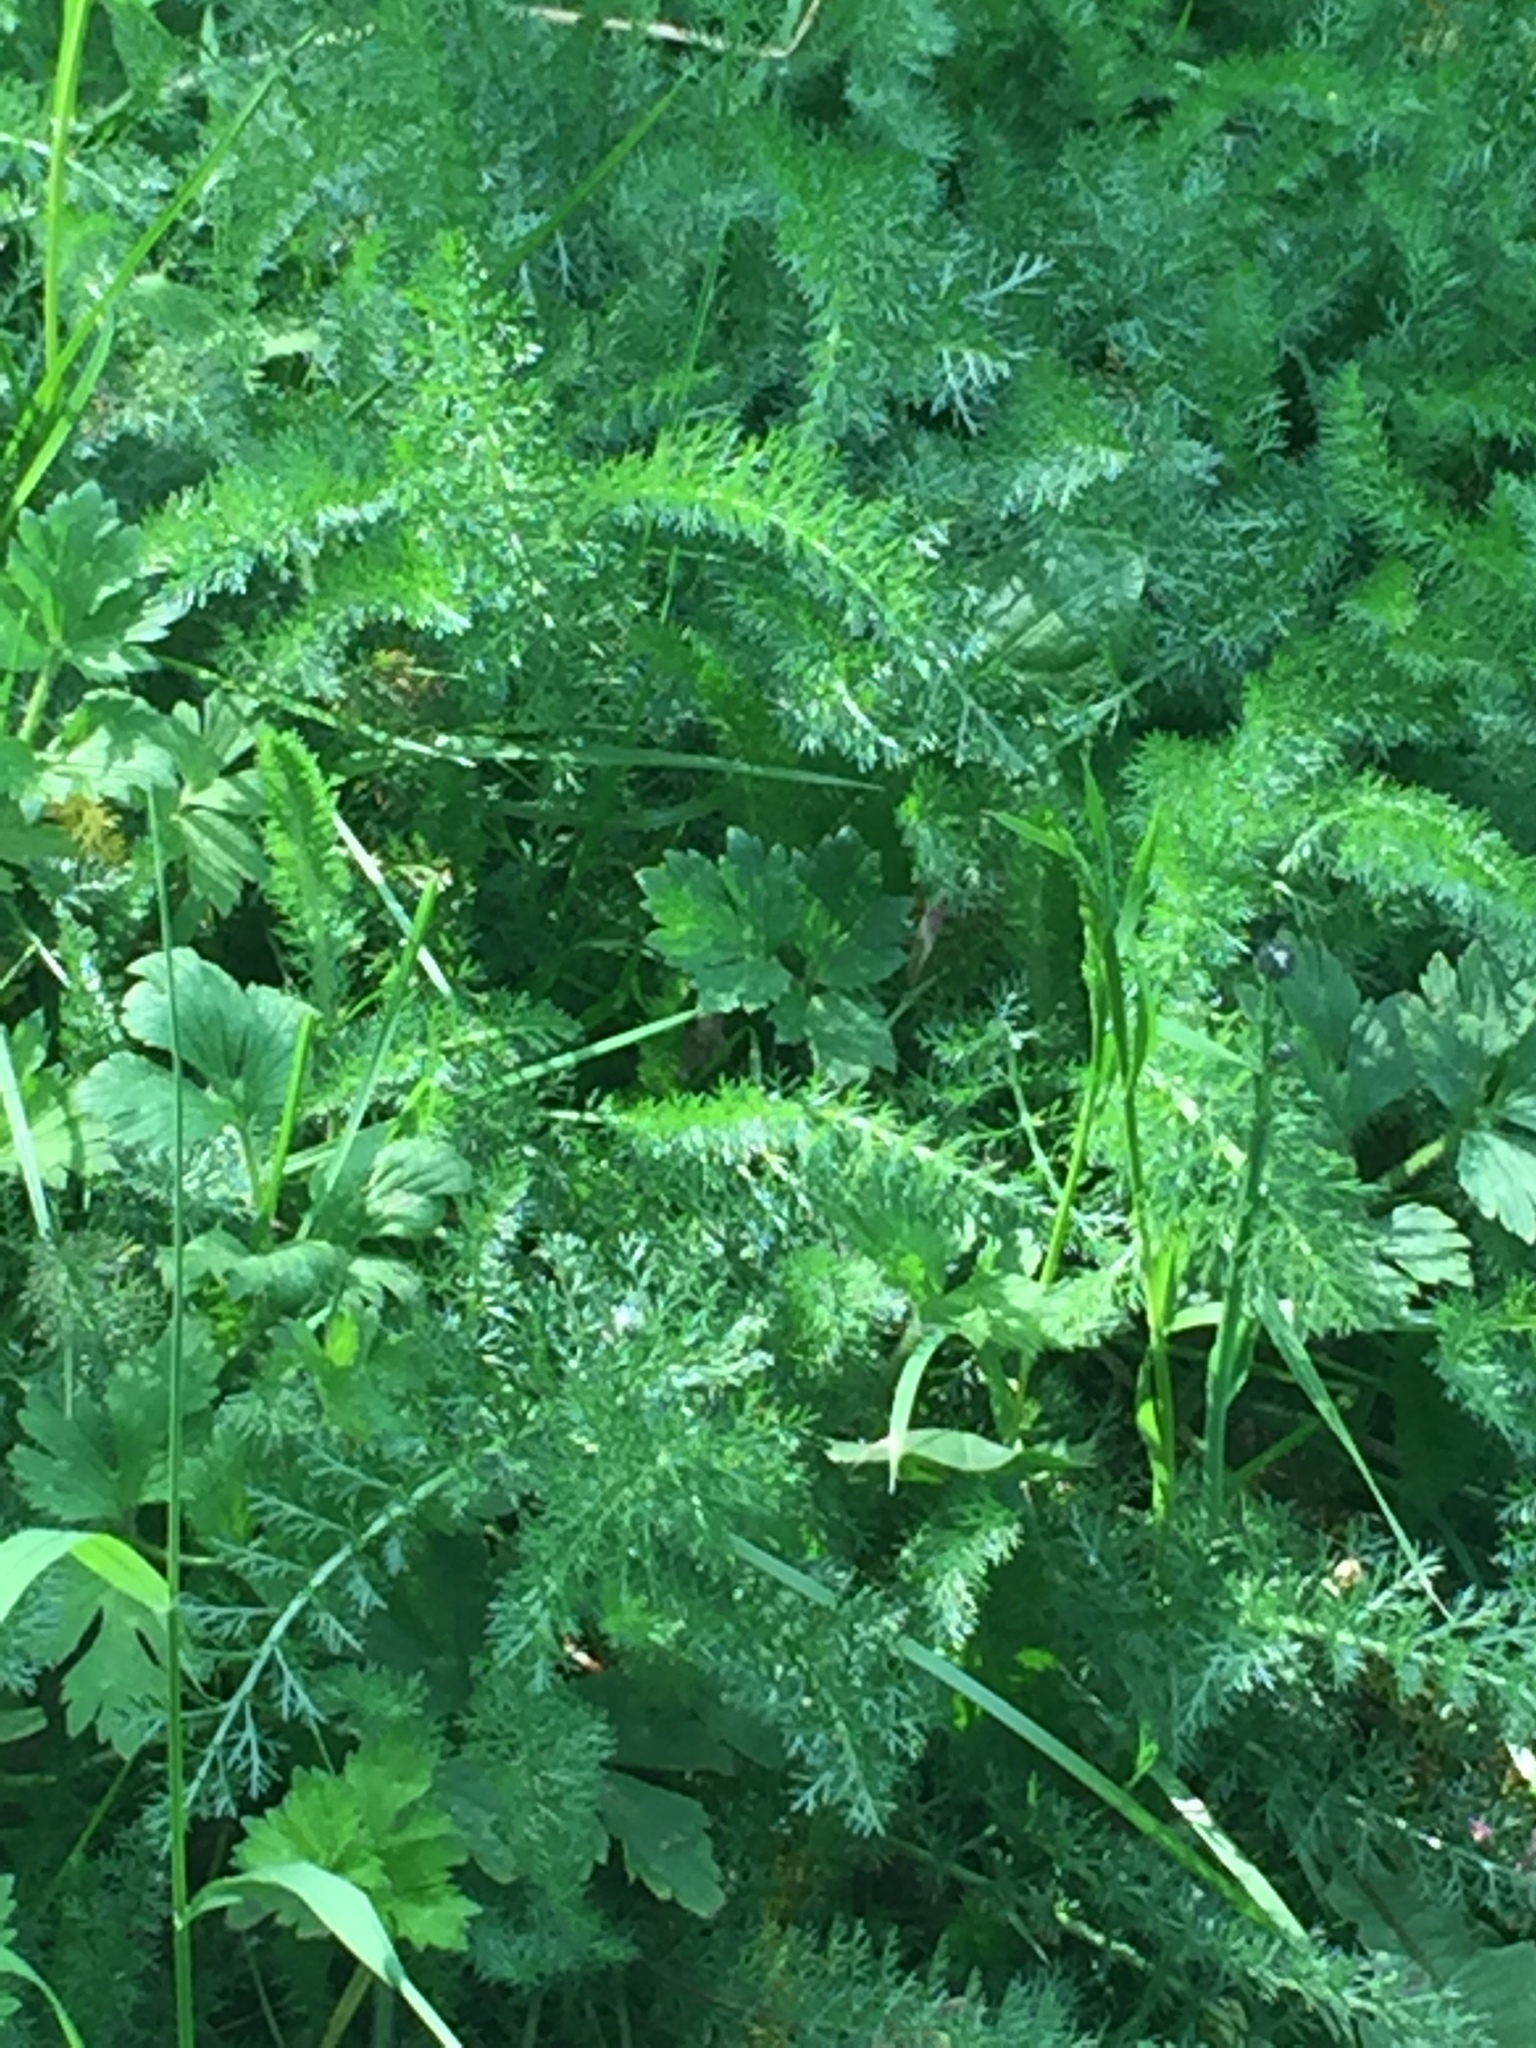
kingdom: Plantae
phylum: Tracheophyta
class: Magnoliopsida
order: Asterales
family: Asteraceae
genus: Achillea
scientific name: Achillea millefolium
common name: Yarrow
